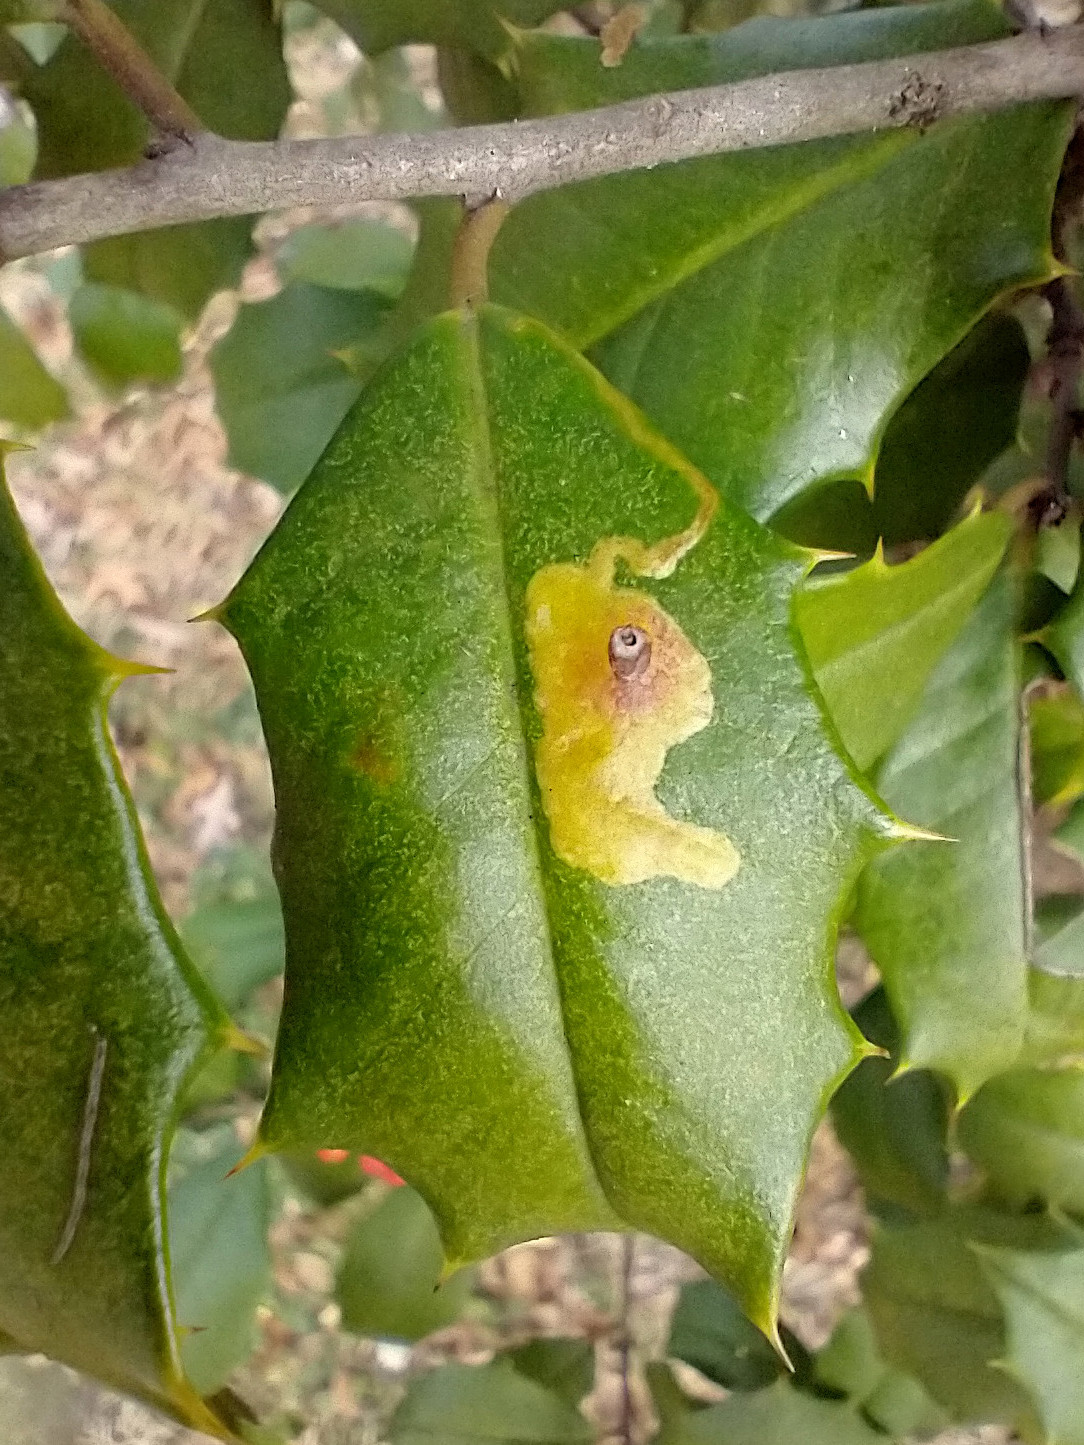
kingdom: Animalia
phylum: Arthropoda
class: Insecta
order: Diptera
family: Agromyzidae
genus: Phytomyza
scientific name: Phytomyza ilicicola
